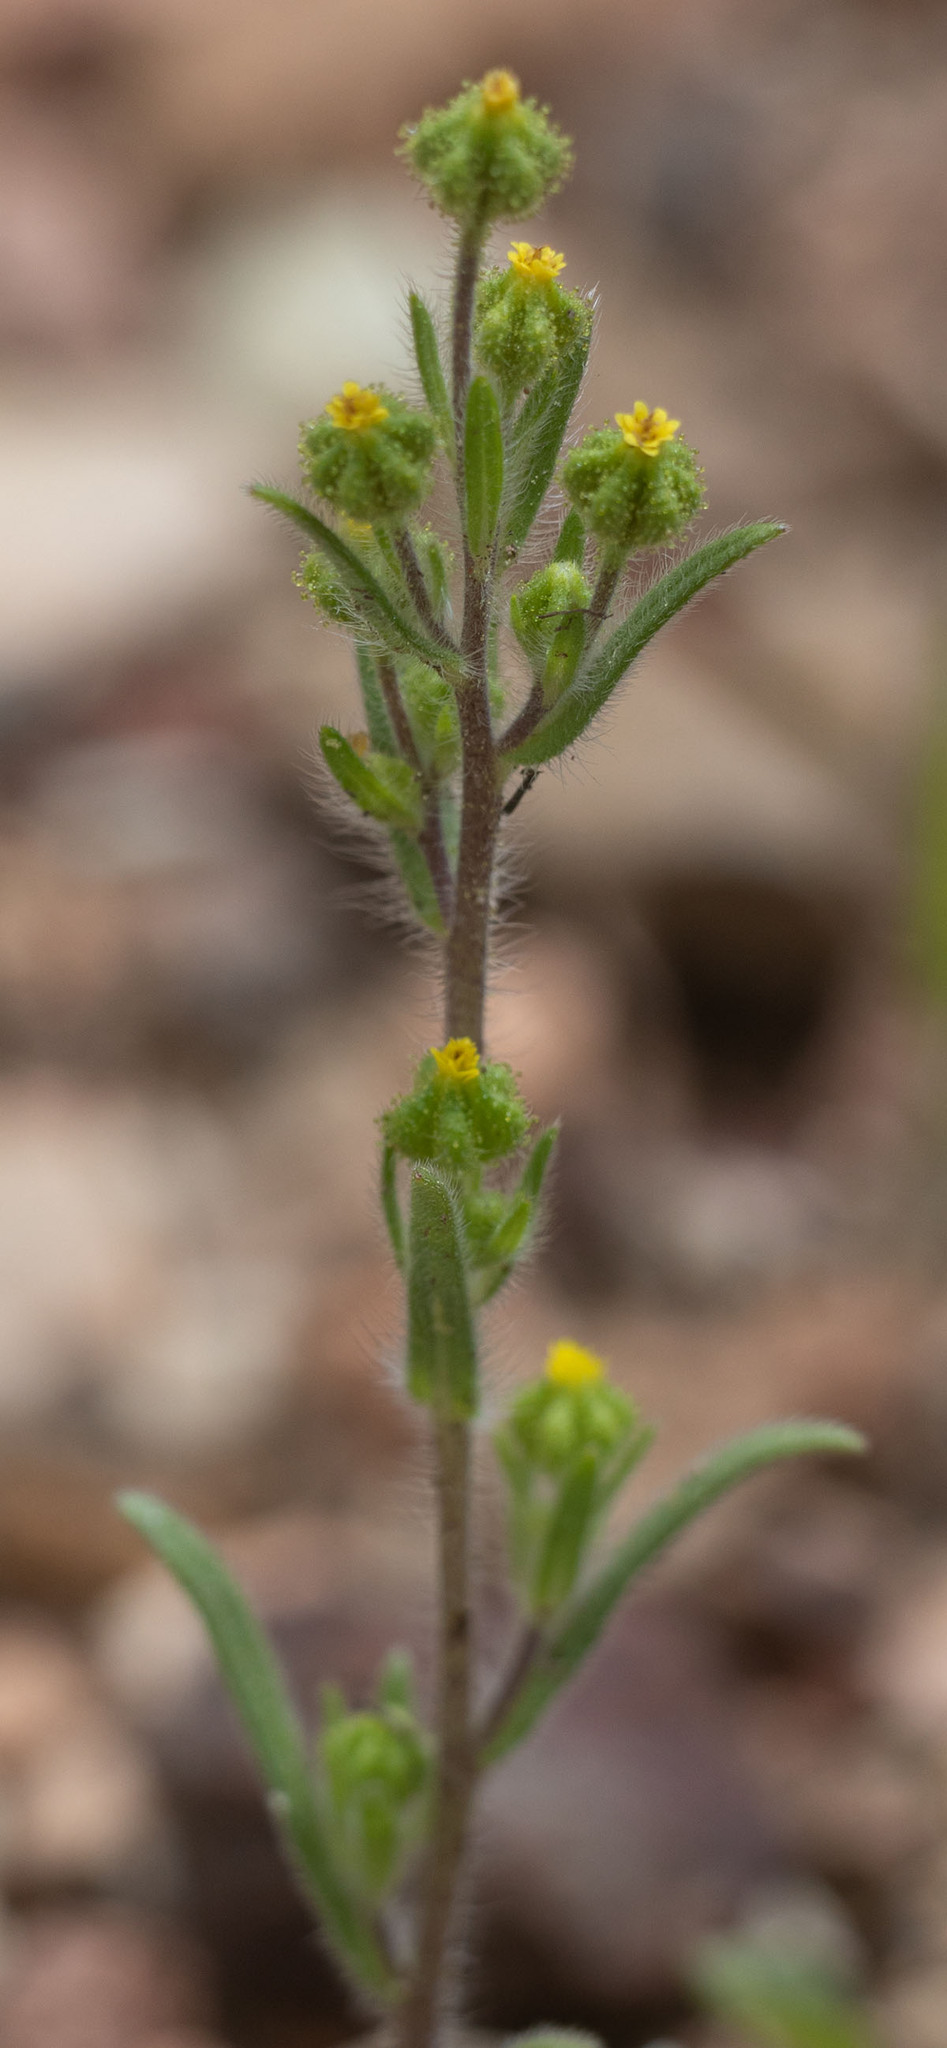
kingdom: Plantae
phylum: Tracheophyta
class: Magnoliopsida
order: Asterales
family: Asteraceae
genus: Madia
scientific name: Madia exigua
